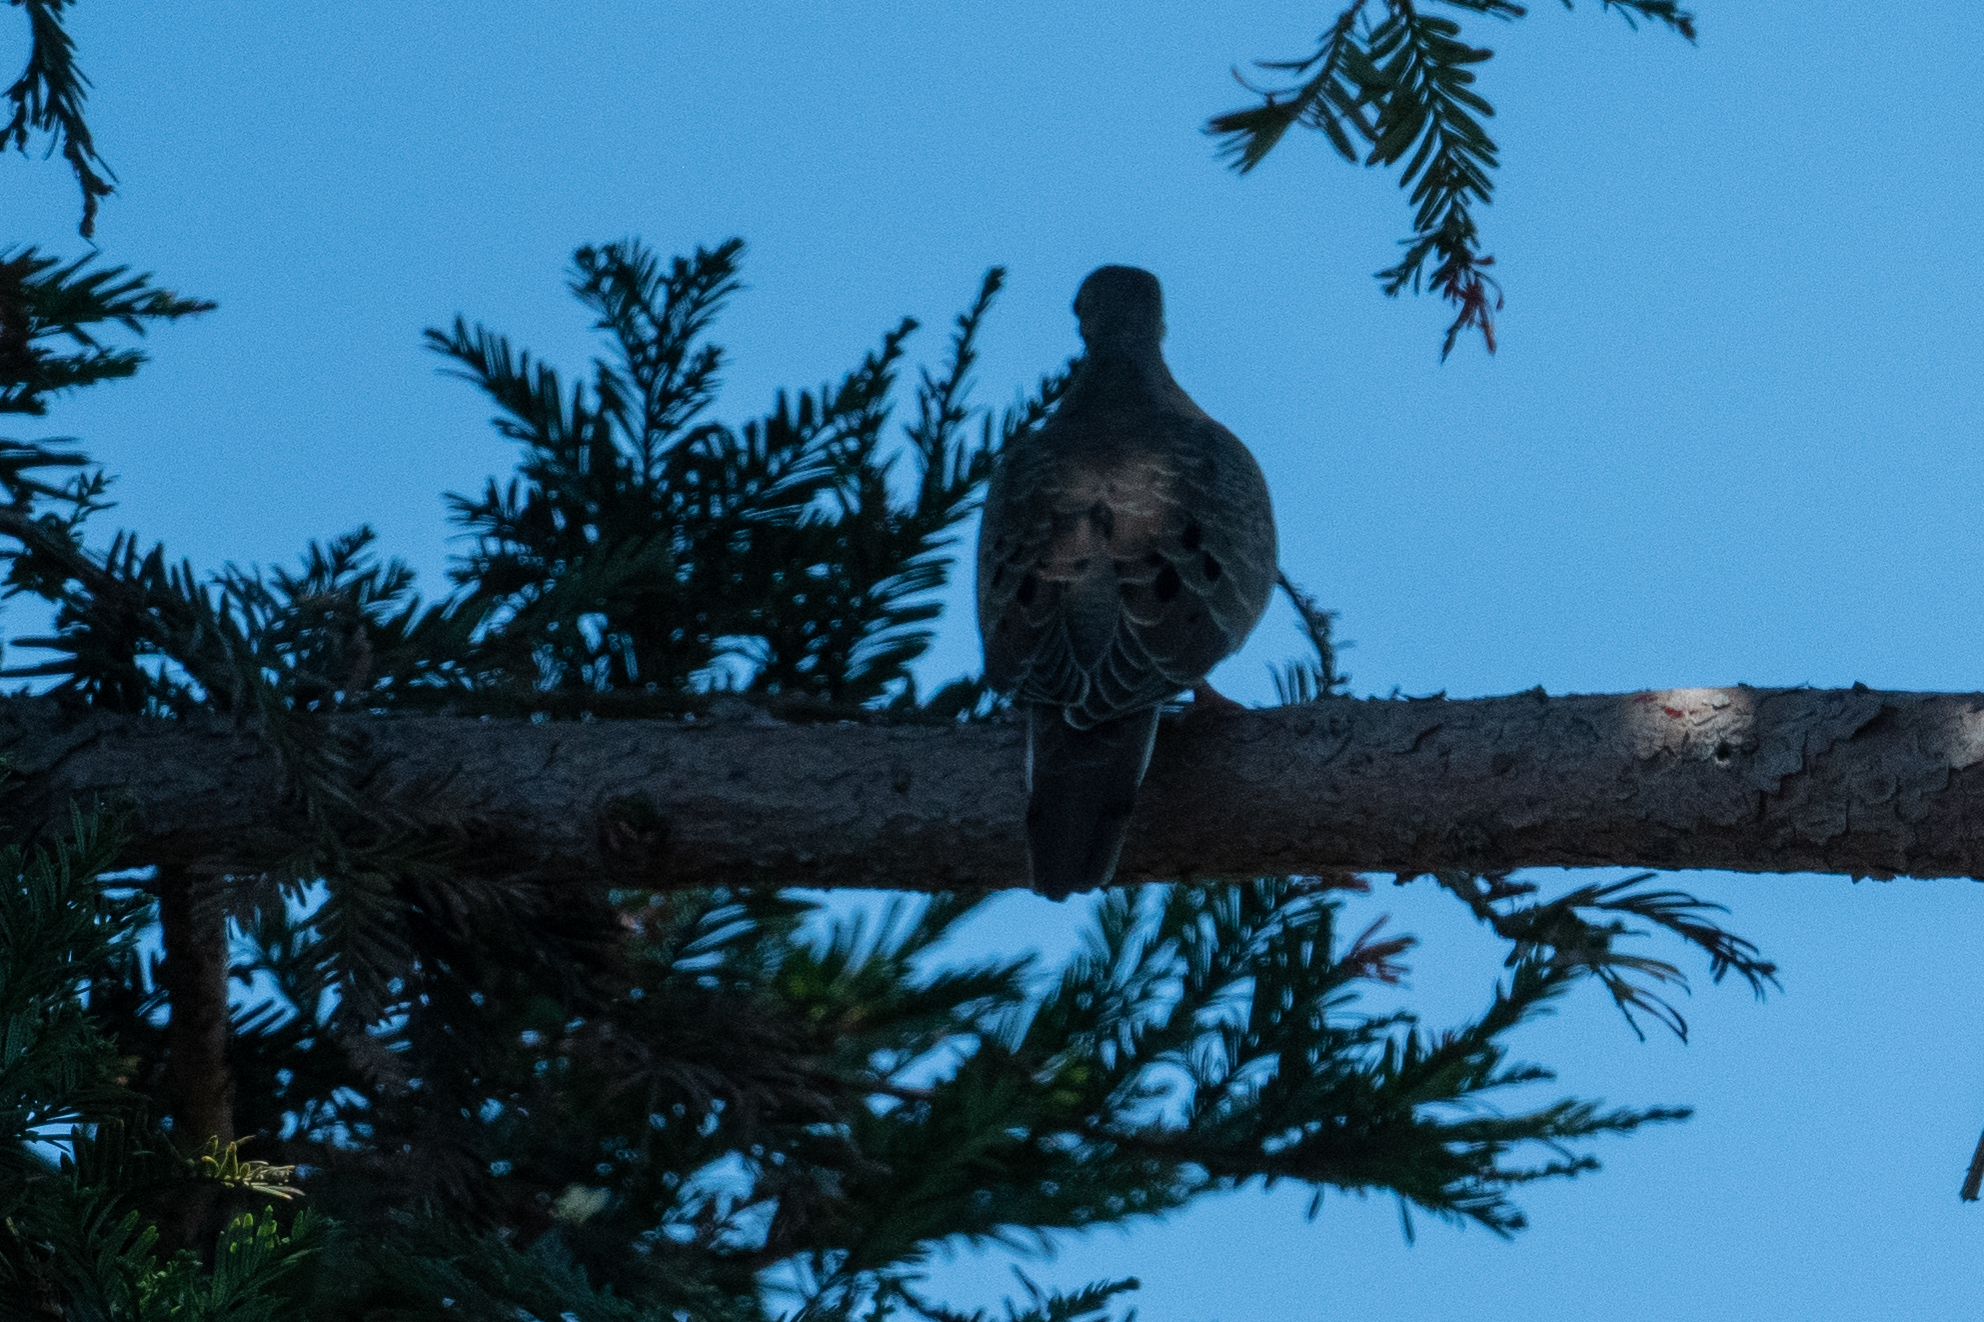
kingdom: Animalia
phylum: Chordata
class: Aves
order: Columbiformes
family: Columbidae
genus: Zenaida
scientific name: Zenaida macroura
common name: Mourning dove
